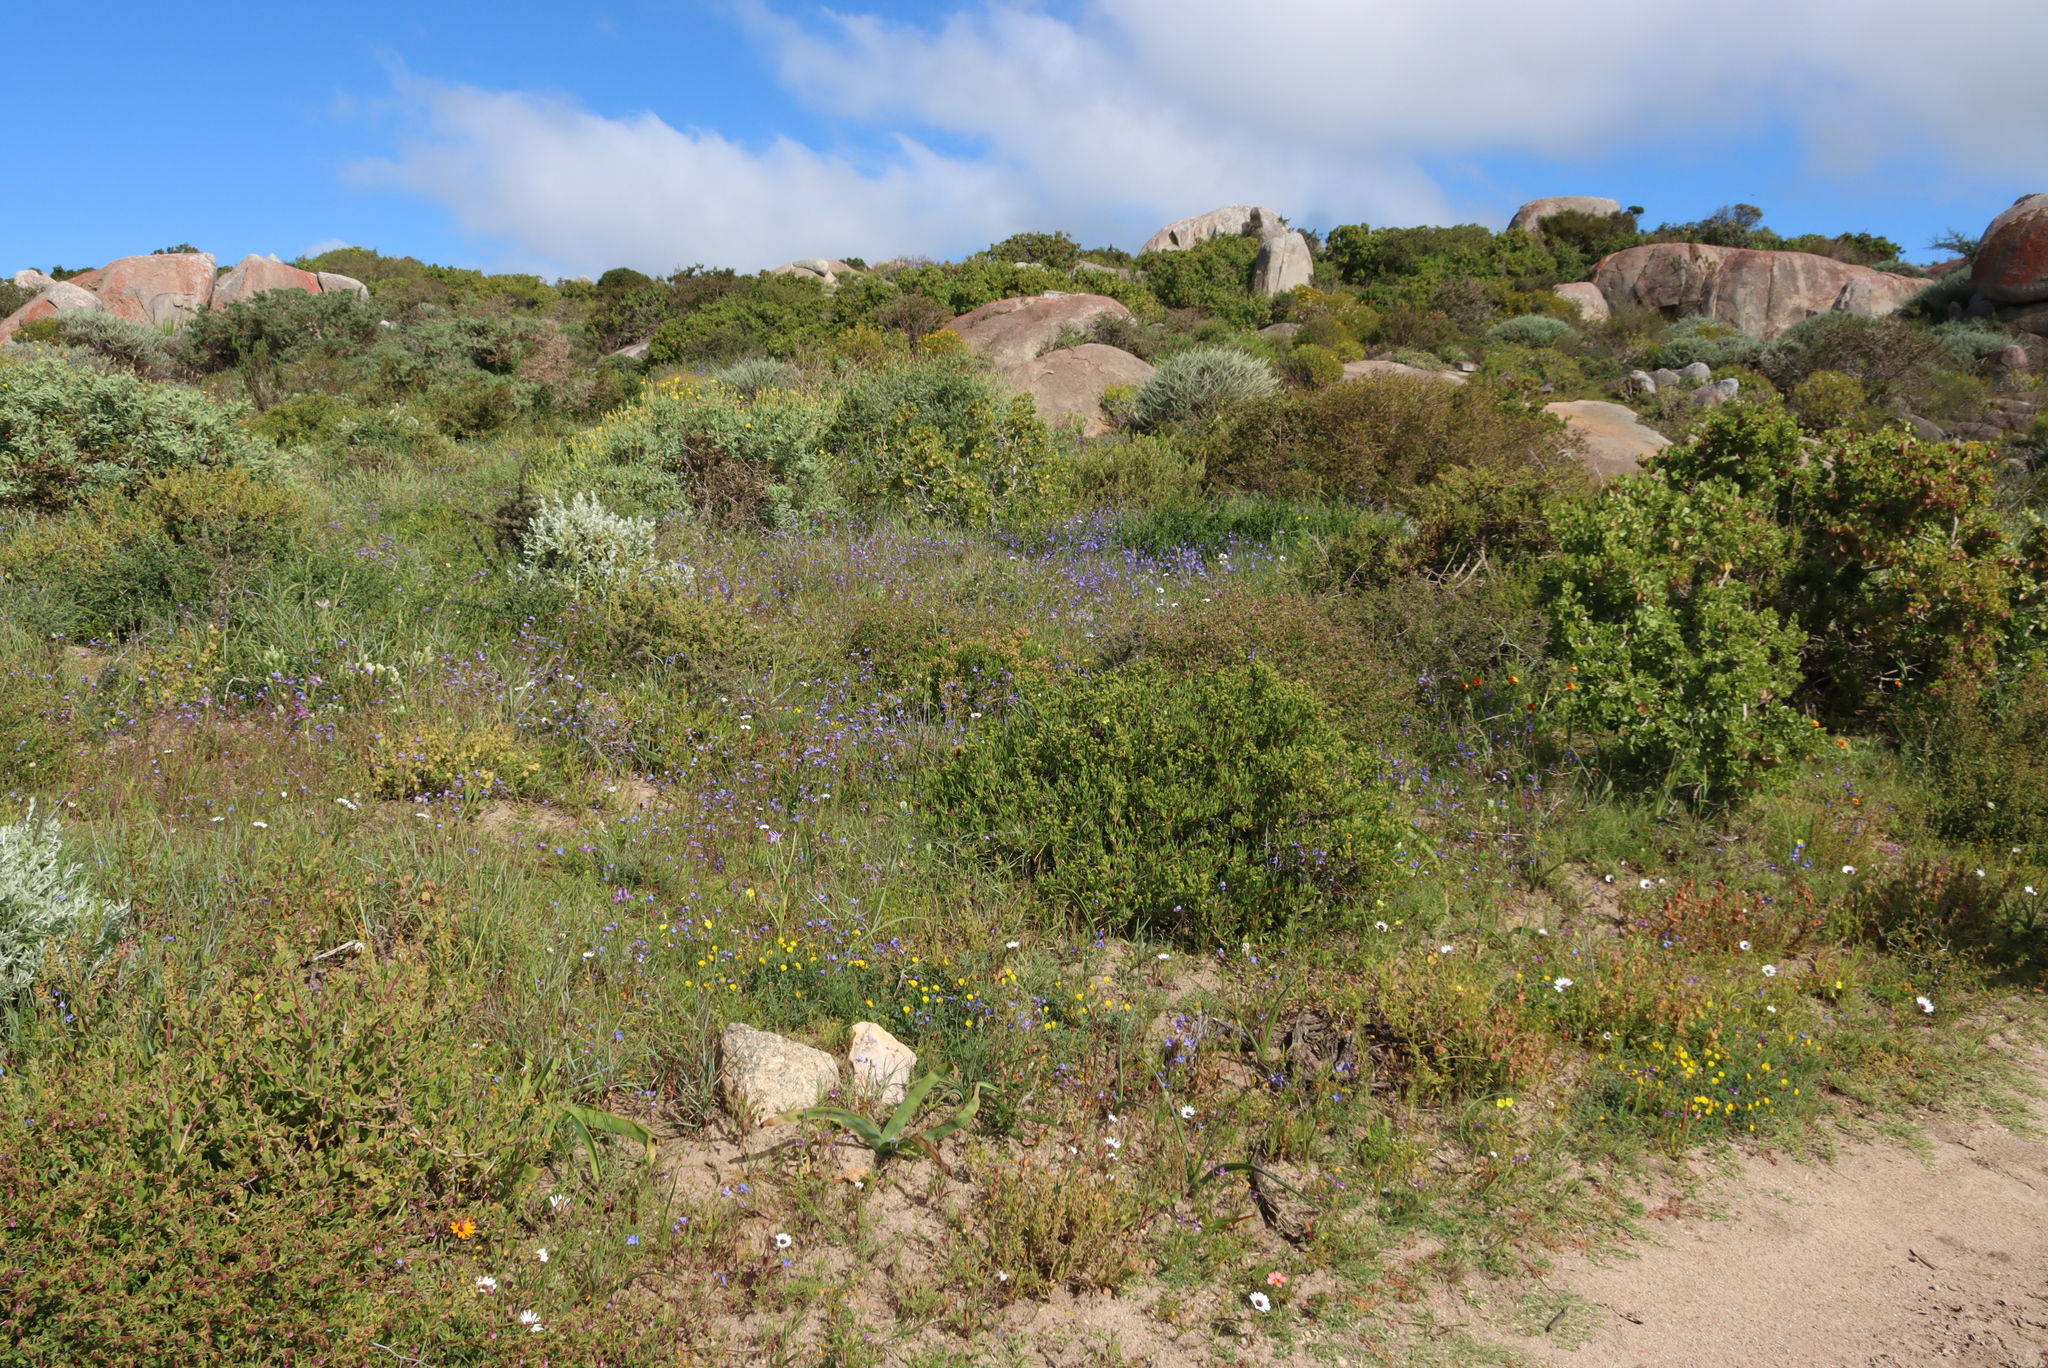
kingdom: Plantae
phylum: Tracheophyta
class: Magnoliopsida
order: Brassicales
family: Brassicaceae
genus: Heliophila
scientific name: Heliophila coronopifolia
